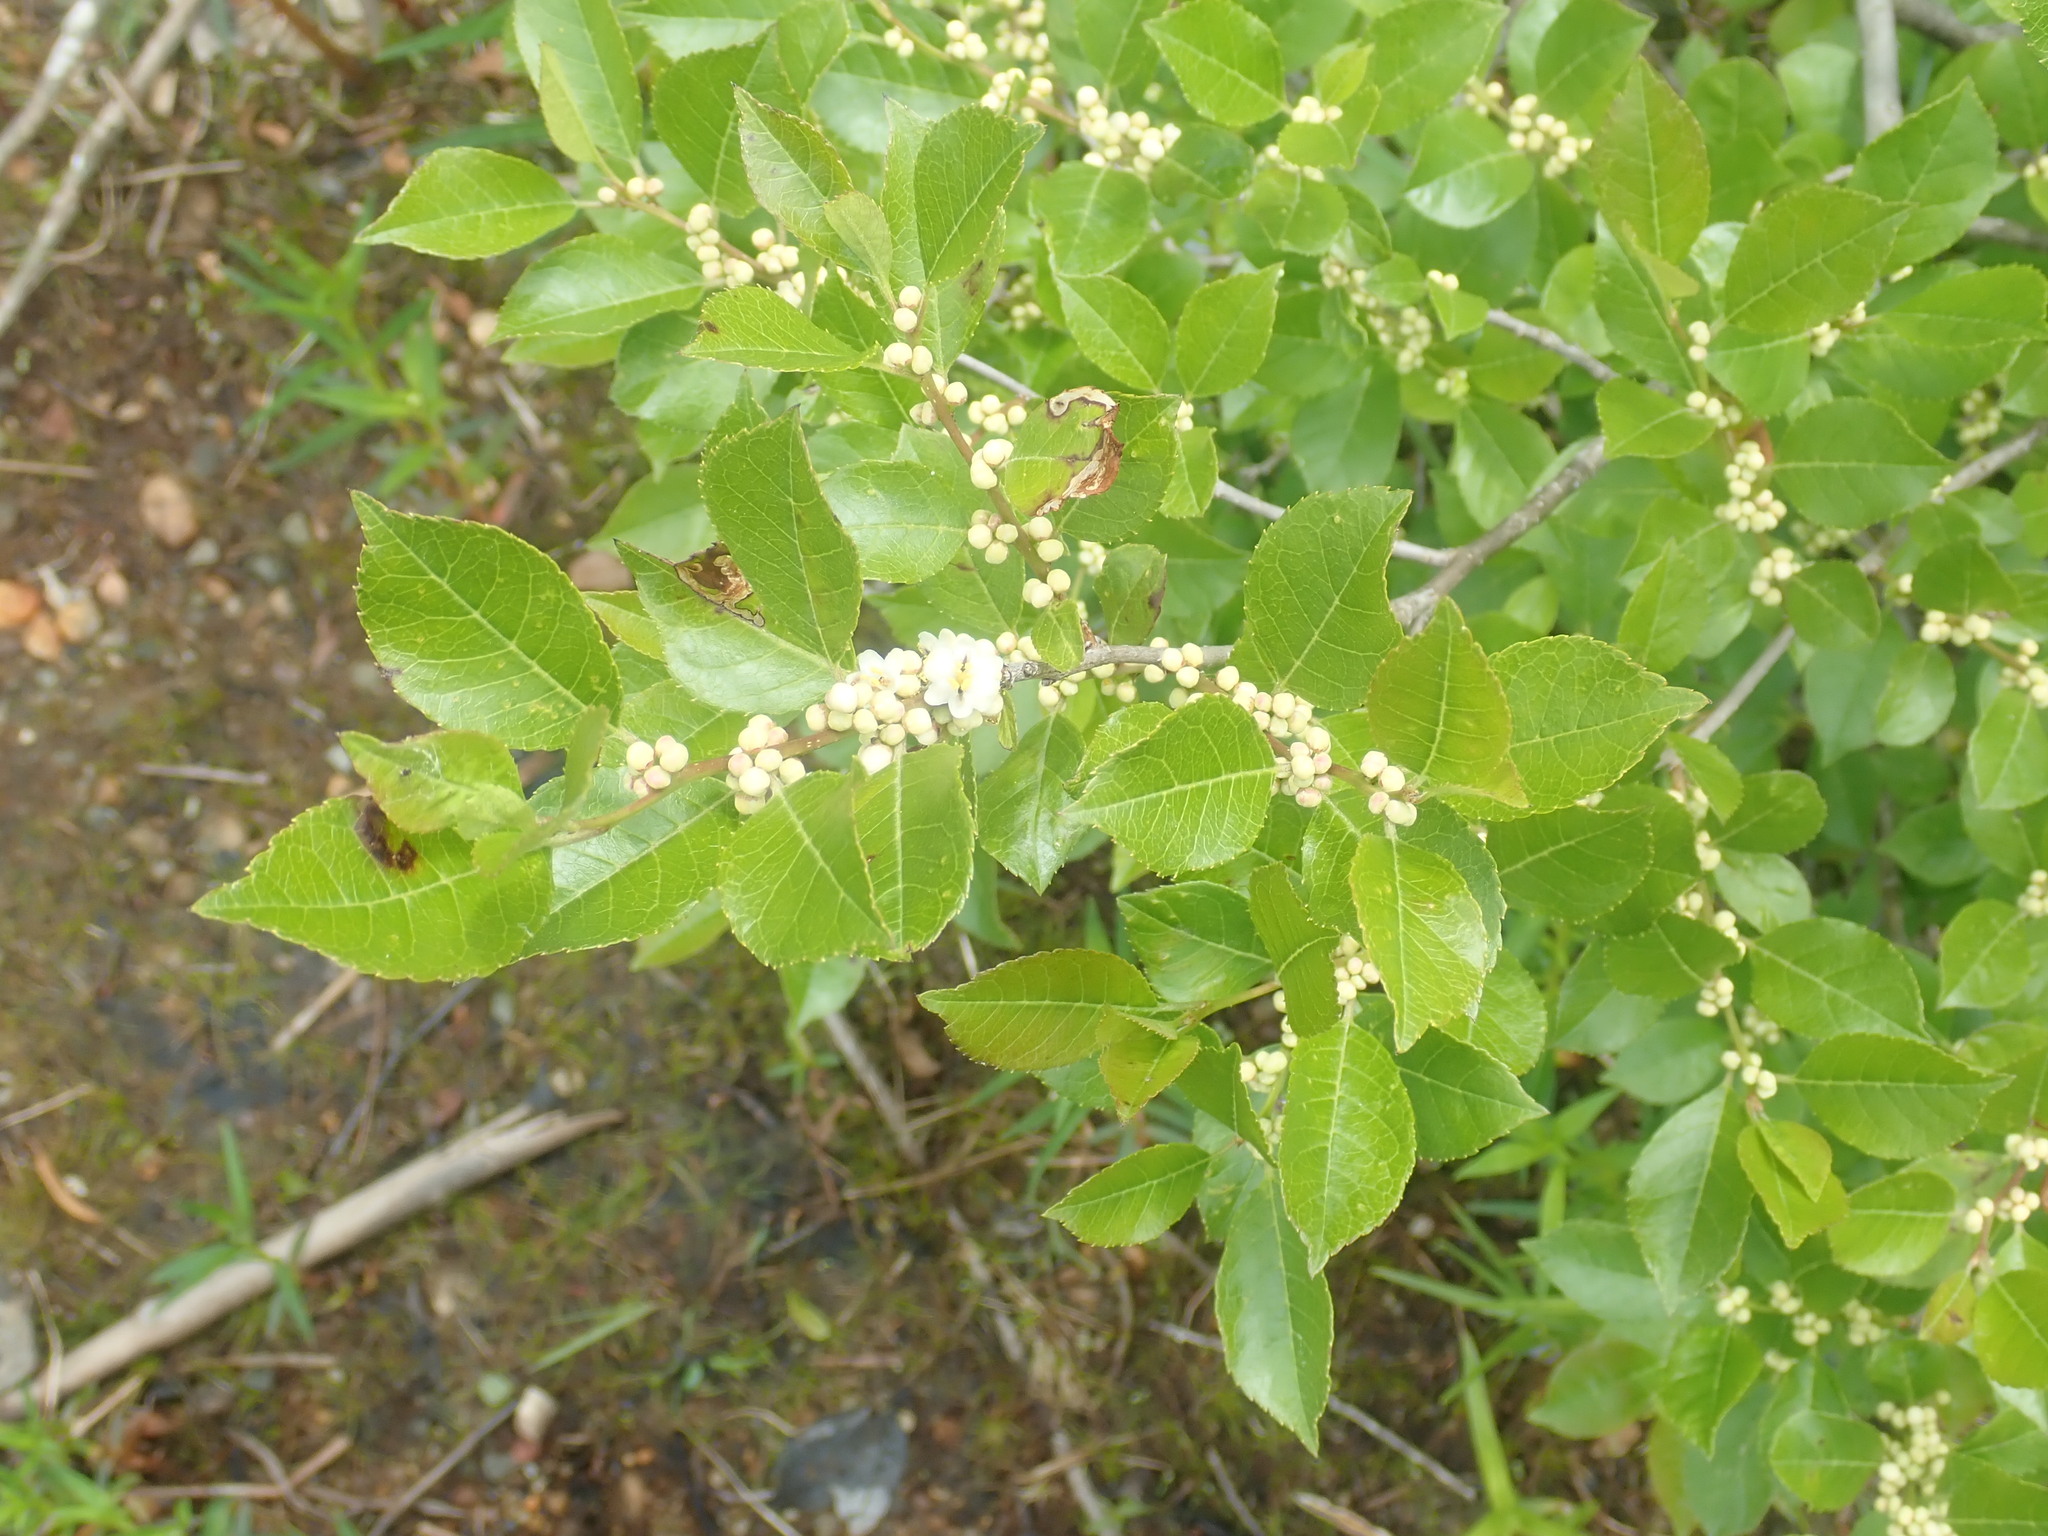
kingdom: Plantae
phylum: Tracheophyta
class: Magnoliopsida
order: Aquifoliales
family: Aquifoliaceae
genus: Ilex
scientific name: Ilex verticillata
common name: Virginia winterberry
